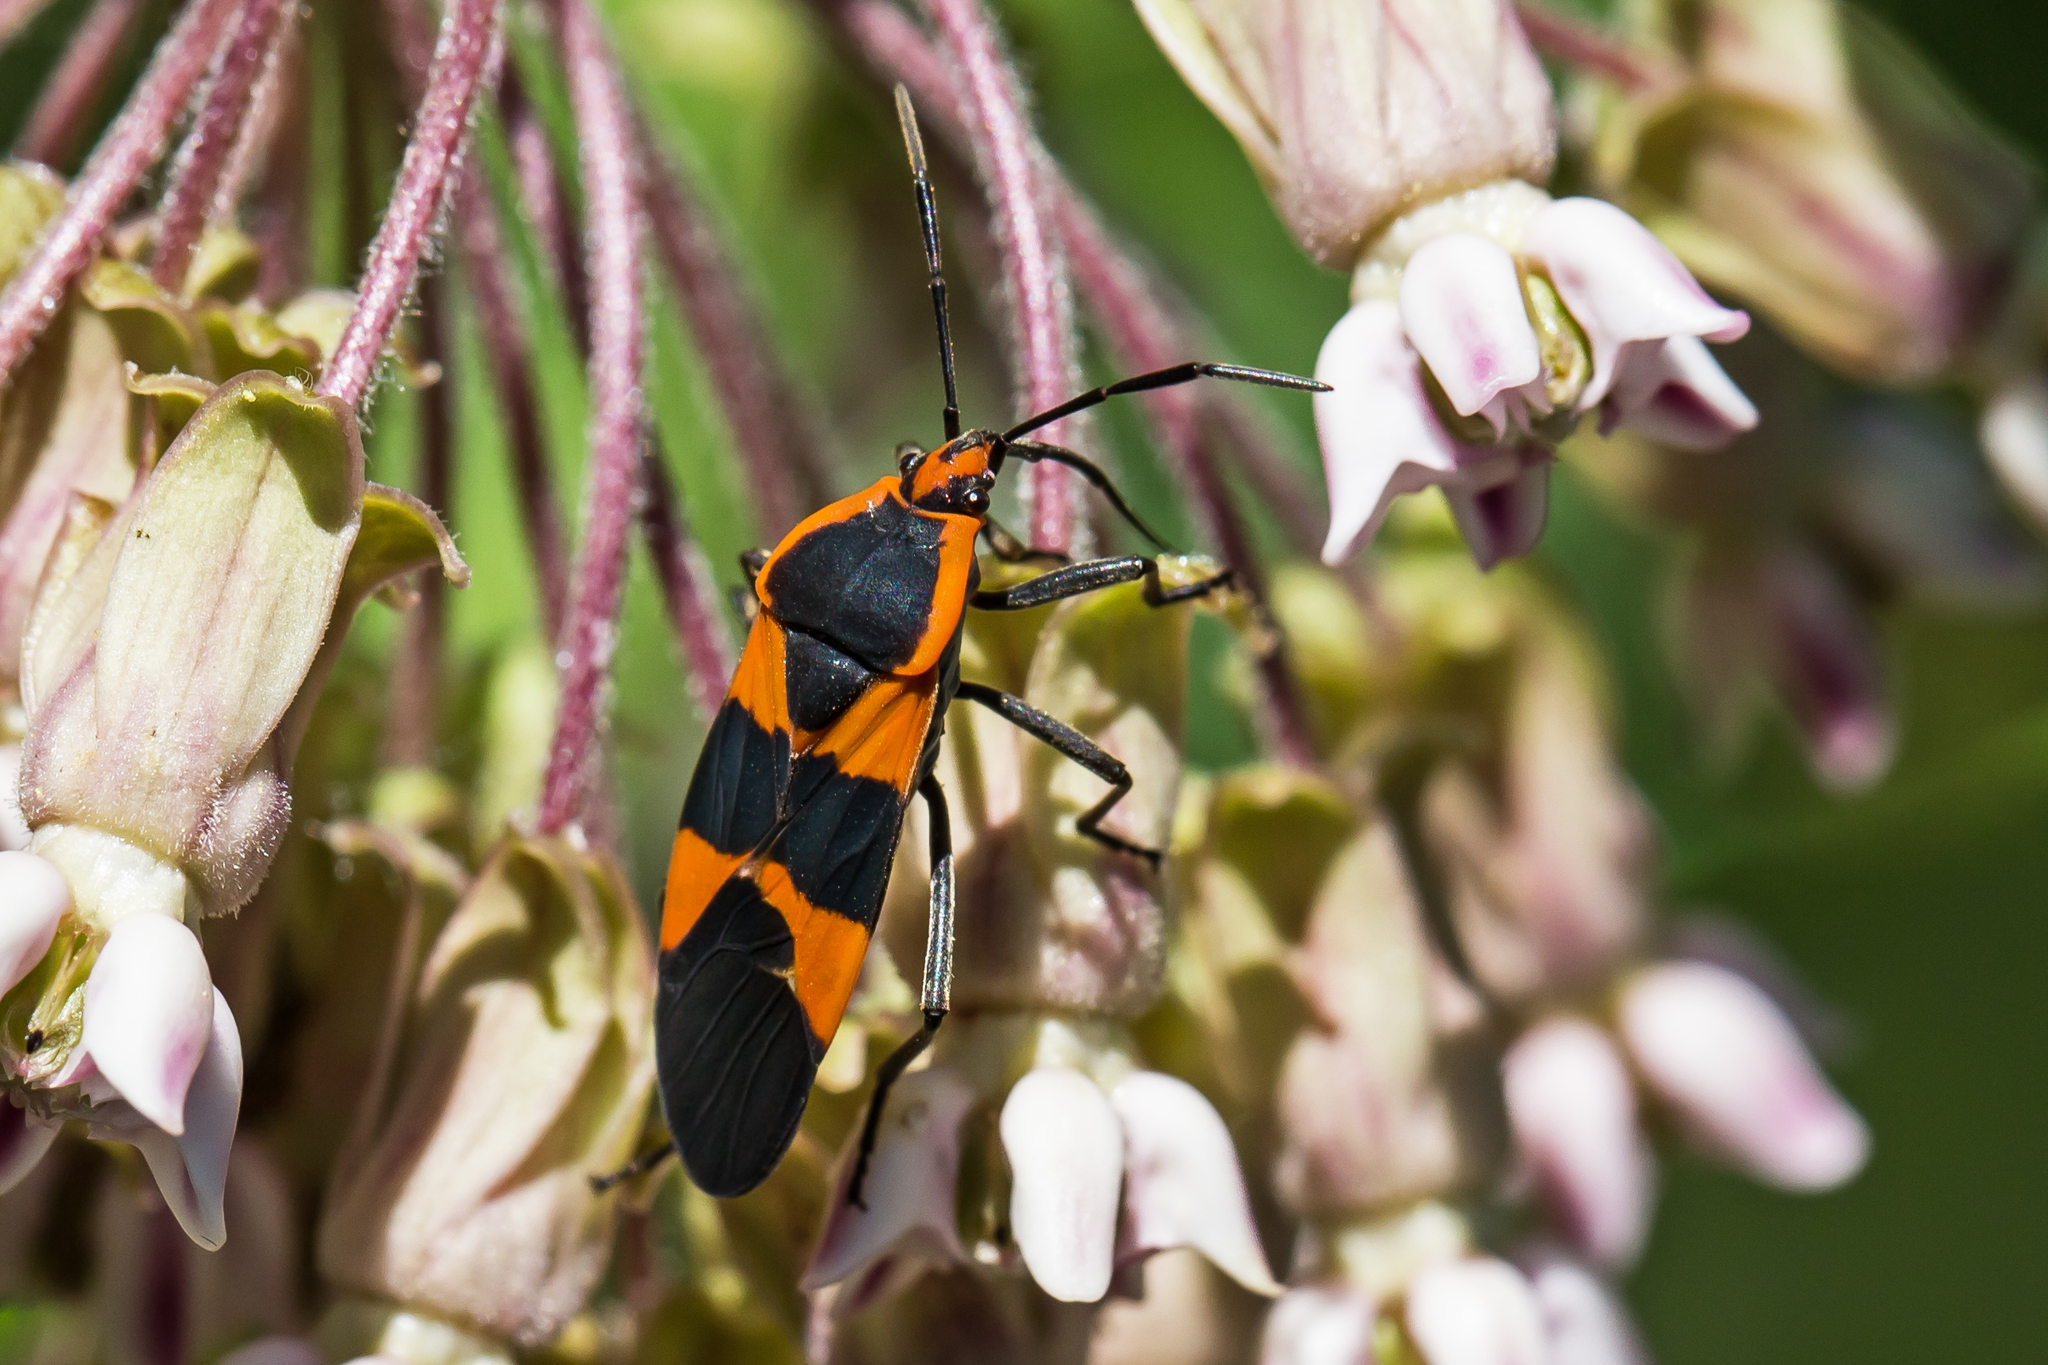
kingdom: Animalia
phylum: Arthropoda
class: Insecta
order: Hemiptera
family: Lygaeidae
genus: Oncopeltus
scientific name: Oncopeltus fasciatus
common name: Large milkweed bug
